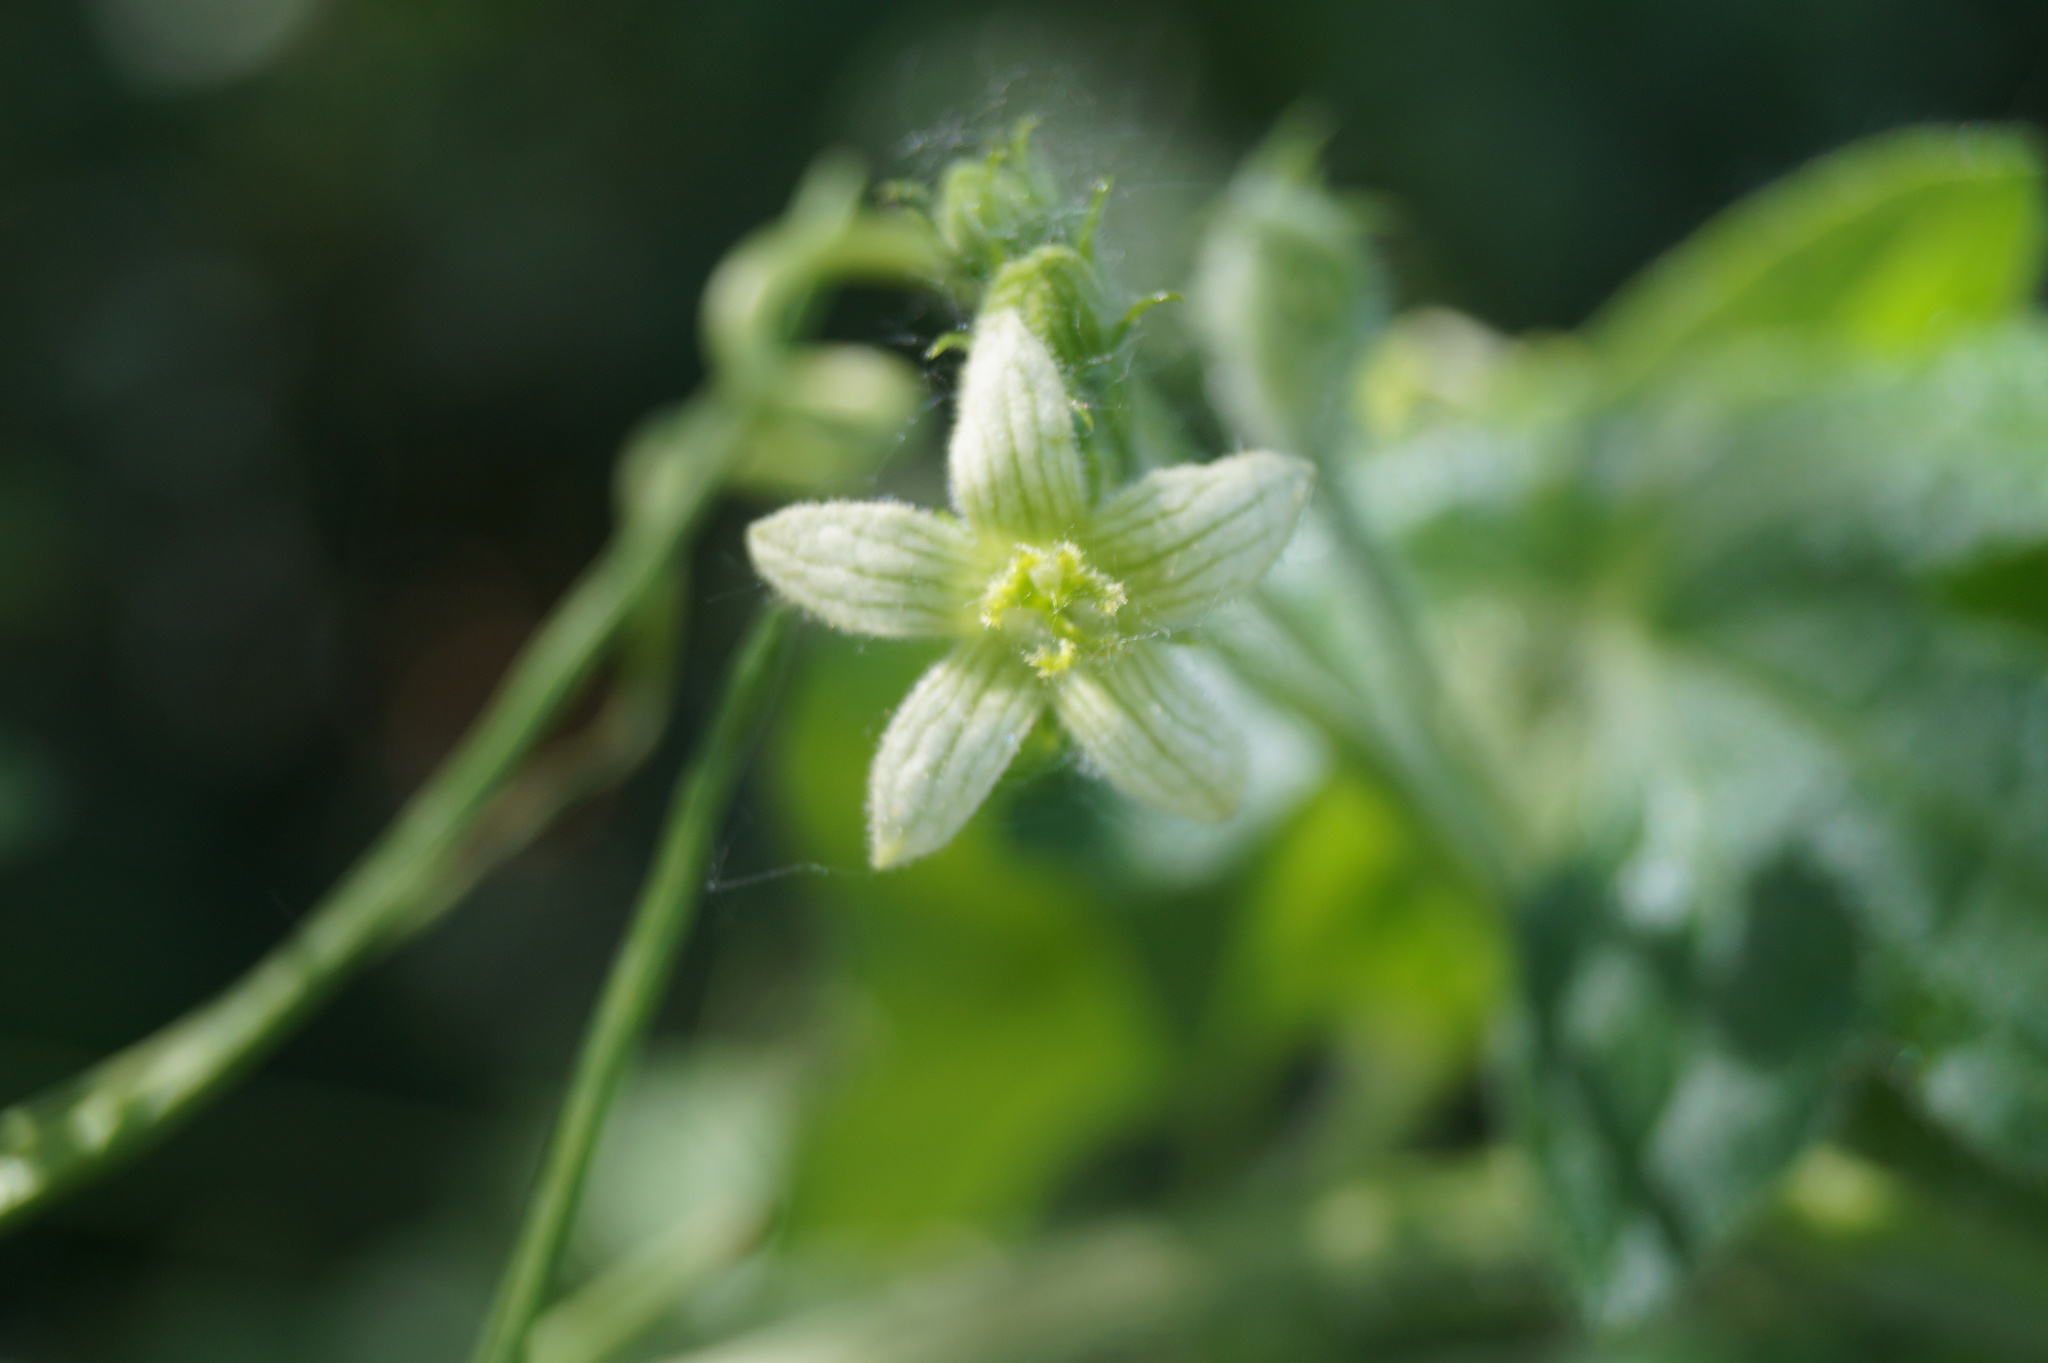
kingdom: Plantae
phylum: Tracheophyta
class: Magnoliopsida
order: Cucurbitales
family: Cucurbitaceae
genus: Bryonia
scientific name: Bryonia dioica
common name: White bryony
